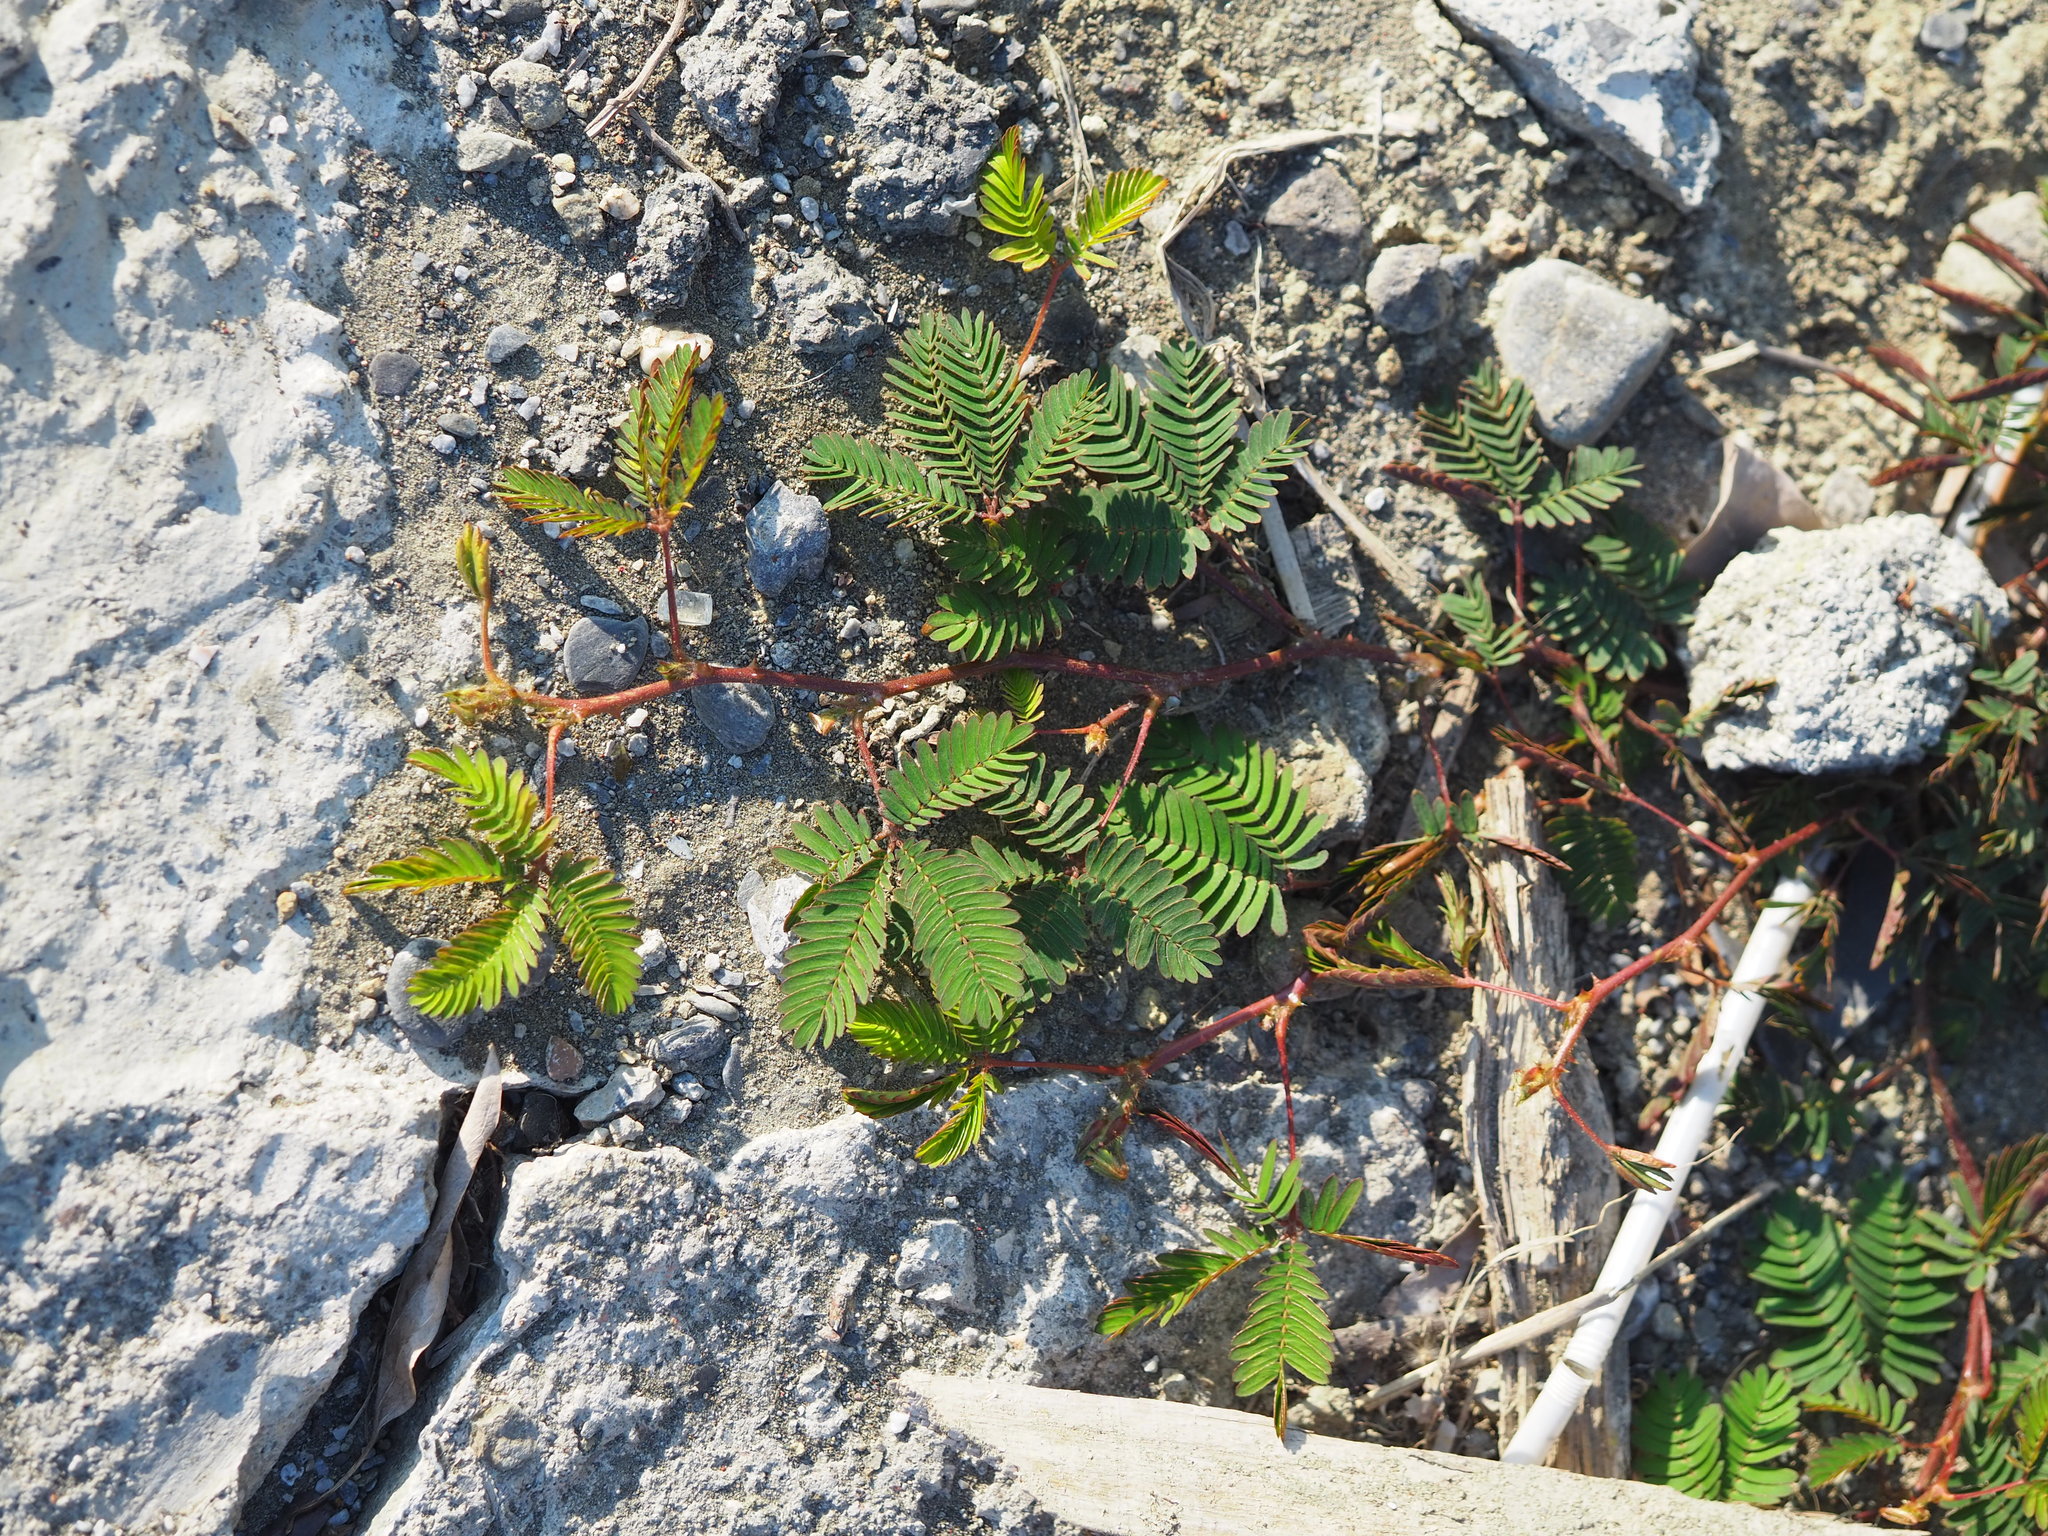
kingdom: Plantae
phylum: Tracheophyta
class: Magnoliopsida
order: Fabales
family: Fabaceae
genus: Mimosa
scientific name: Mimosa pudica
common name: Sensitive plant
